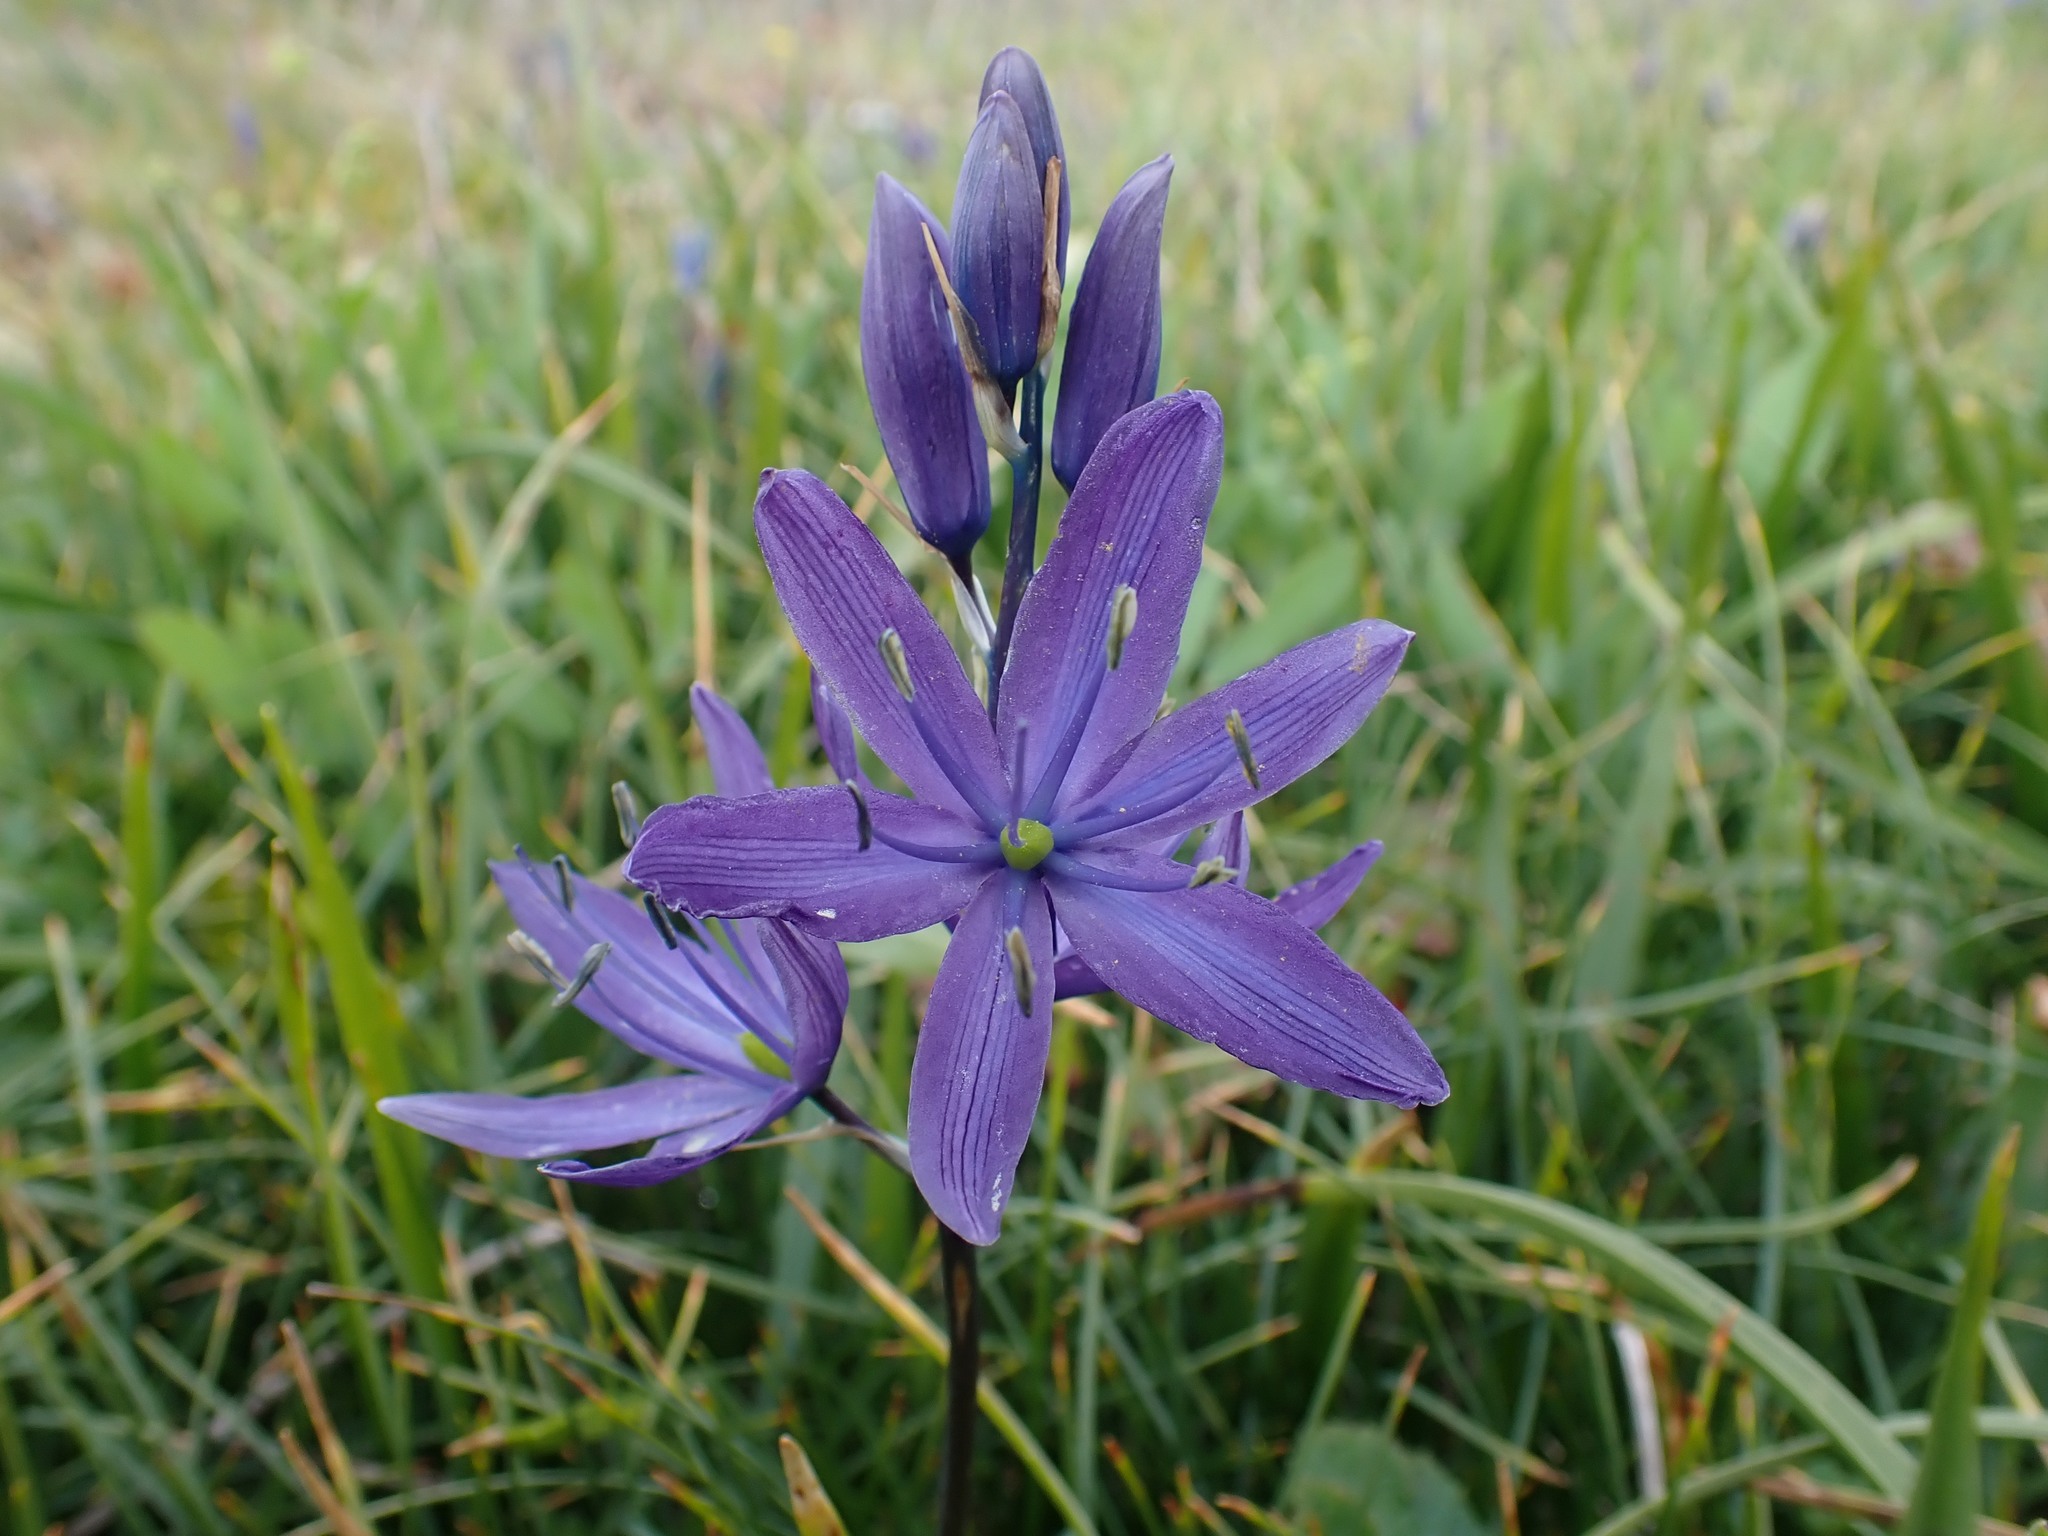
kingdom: Plantae
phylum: Tracheophyta
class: Liliopsida
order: Asparagales
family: Asparagaceae
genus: Camassia
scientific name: Camassia leichtlinii
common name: Leichtlin's camas
